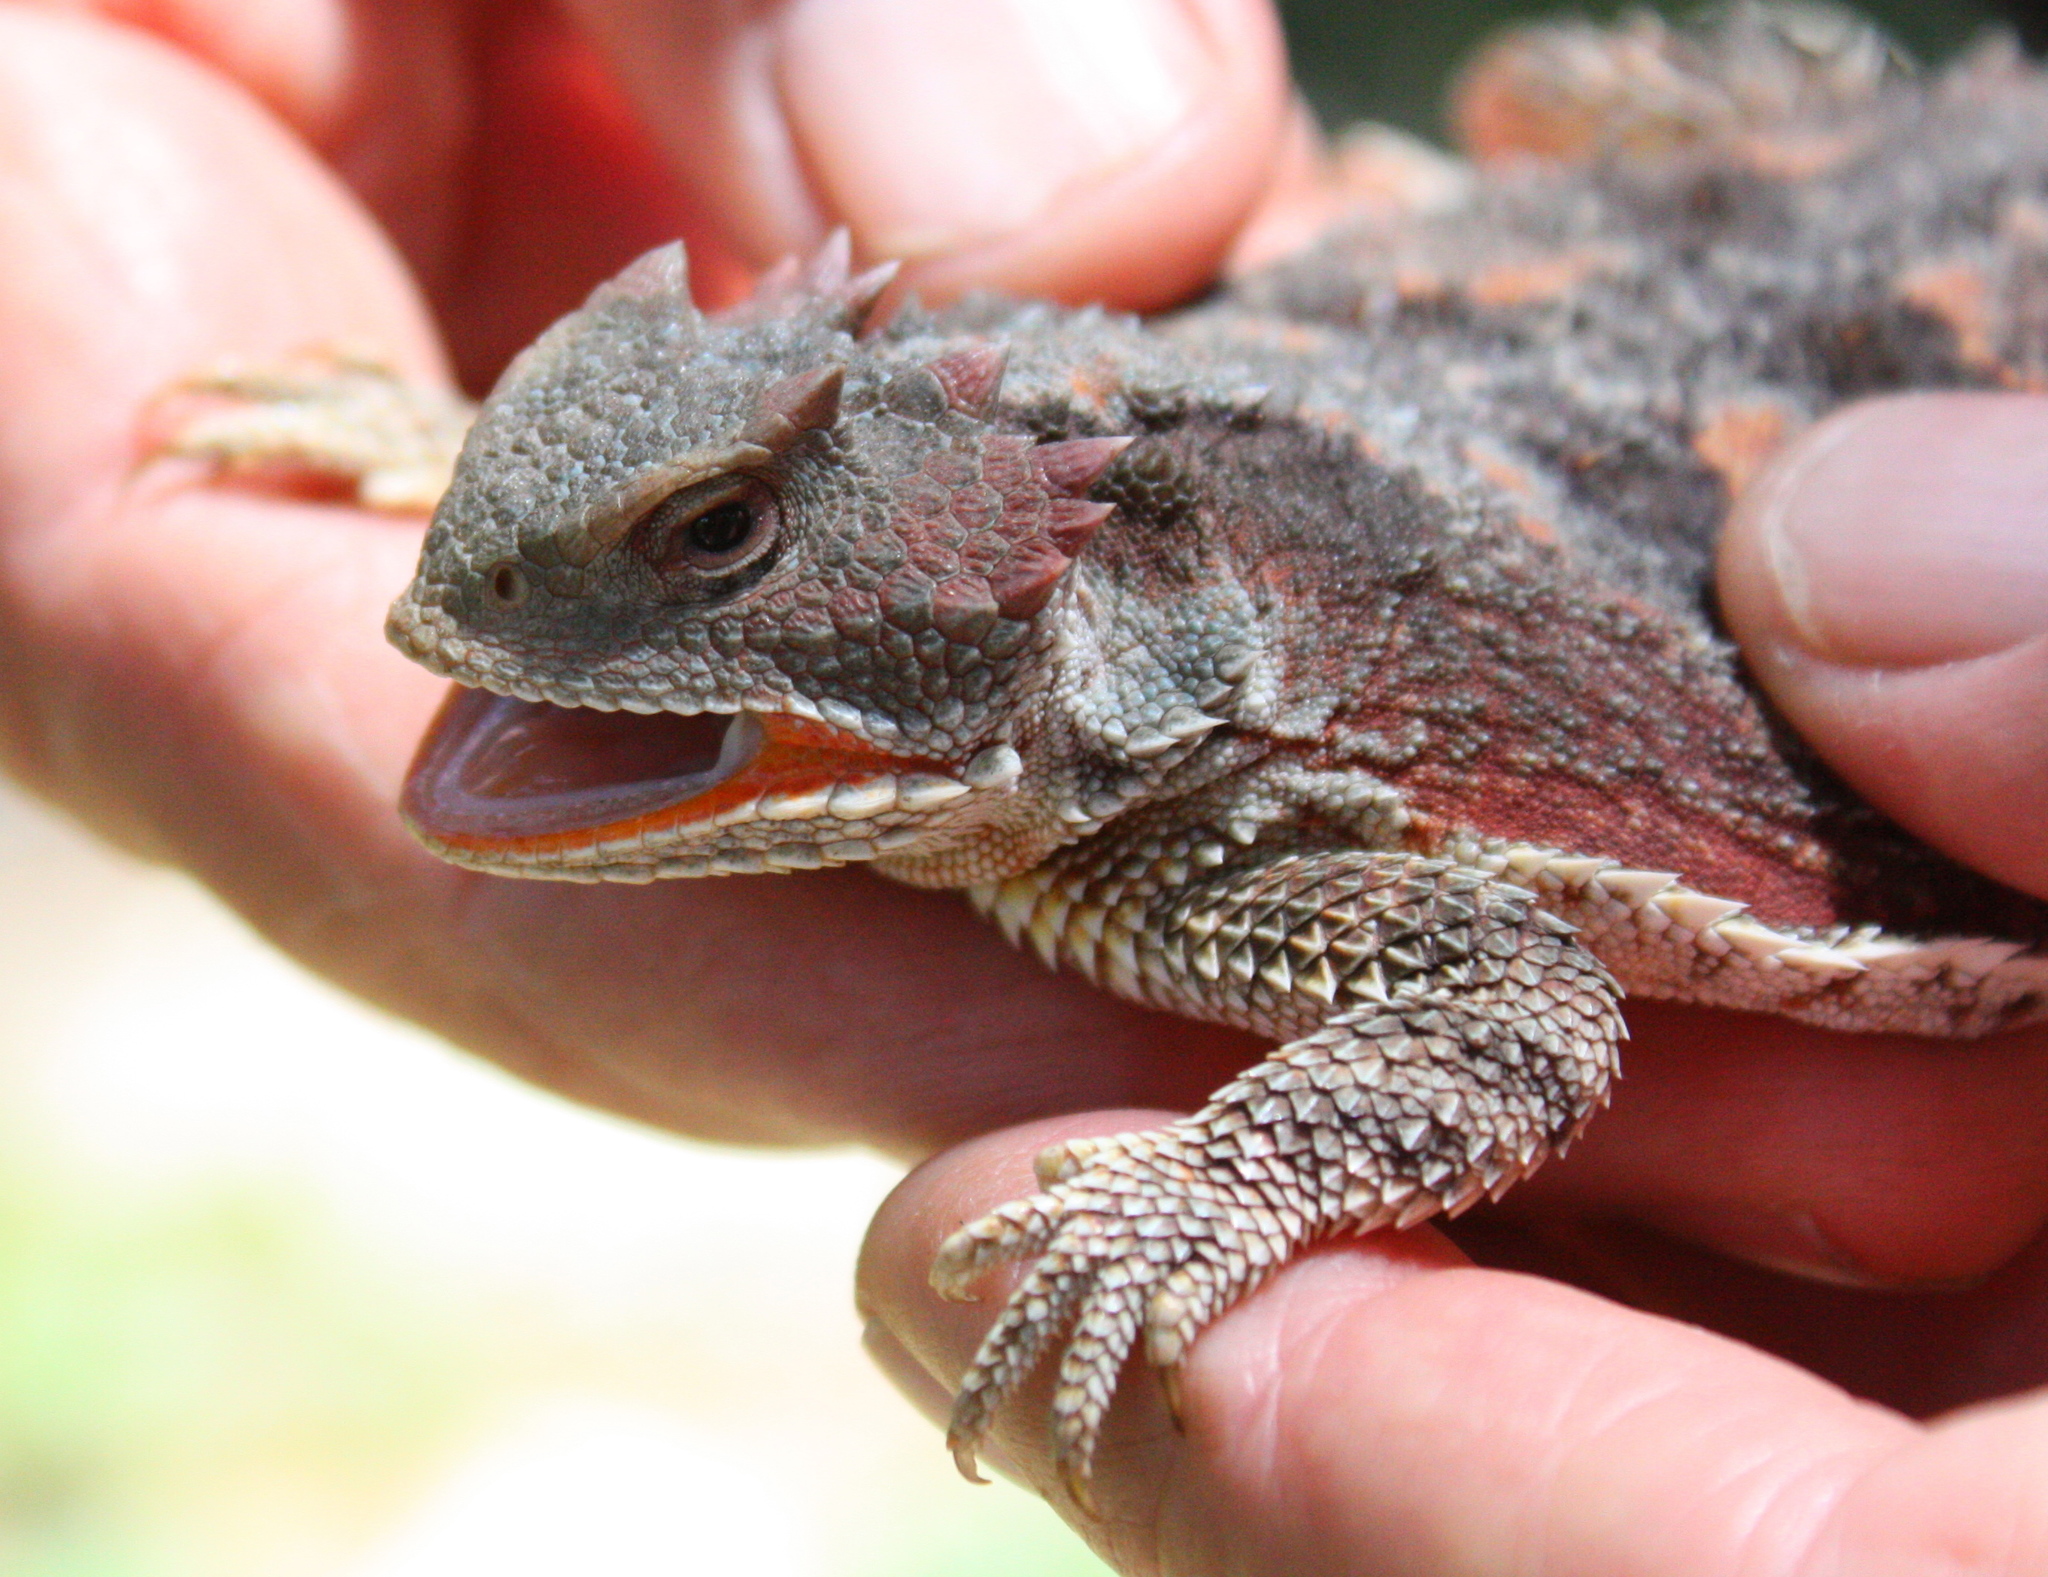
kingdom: Animalia
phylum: Chordata
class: Squamata
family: Phrynosomatidae
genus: Phrynosoma
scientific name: Phrynosoma hernandesi
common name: Greater short-horned lizard
